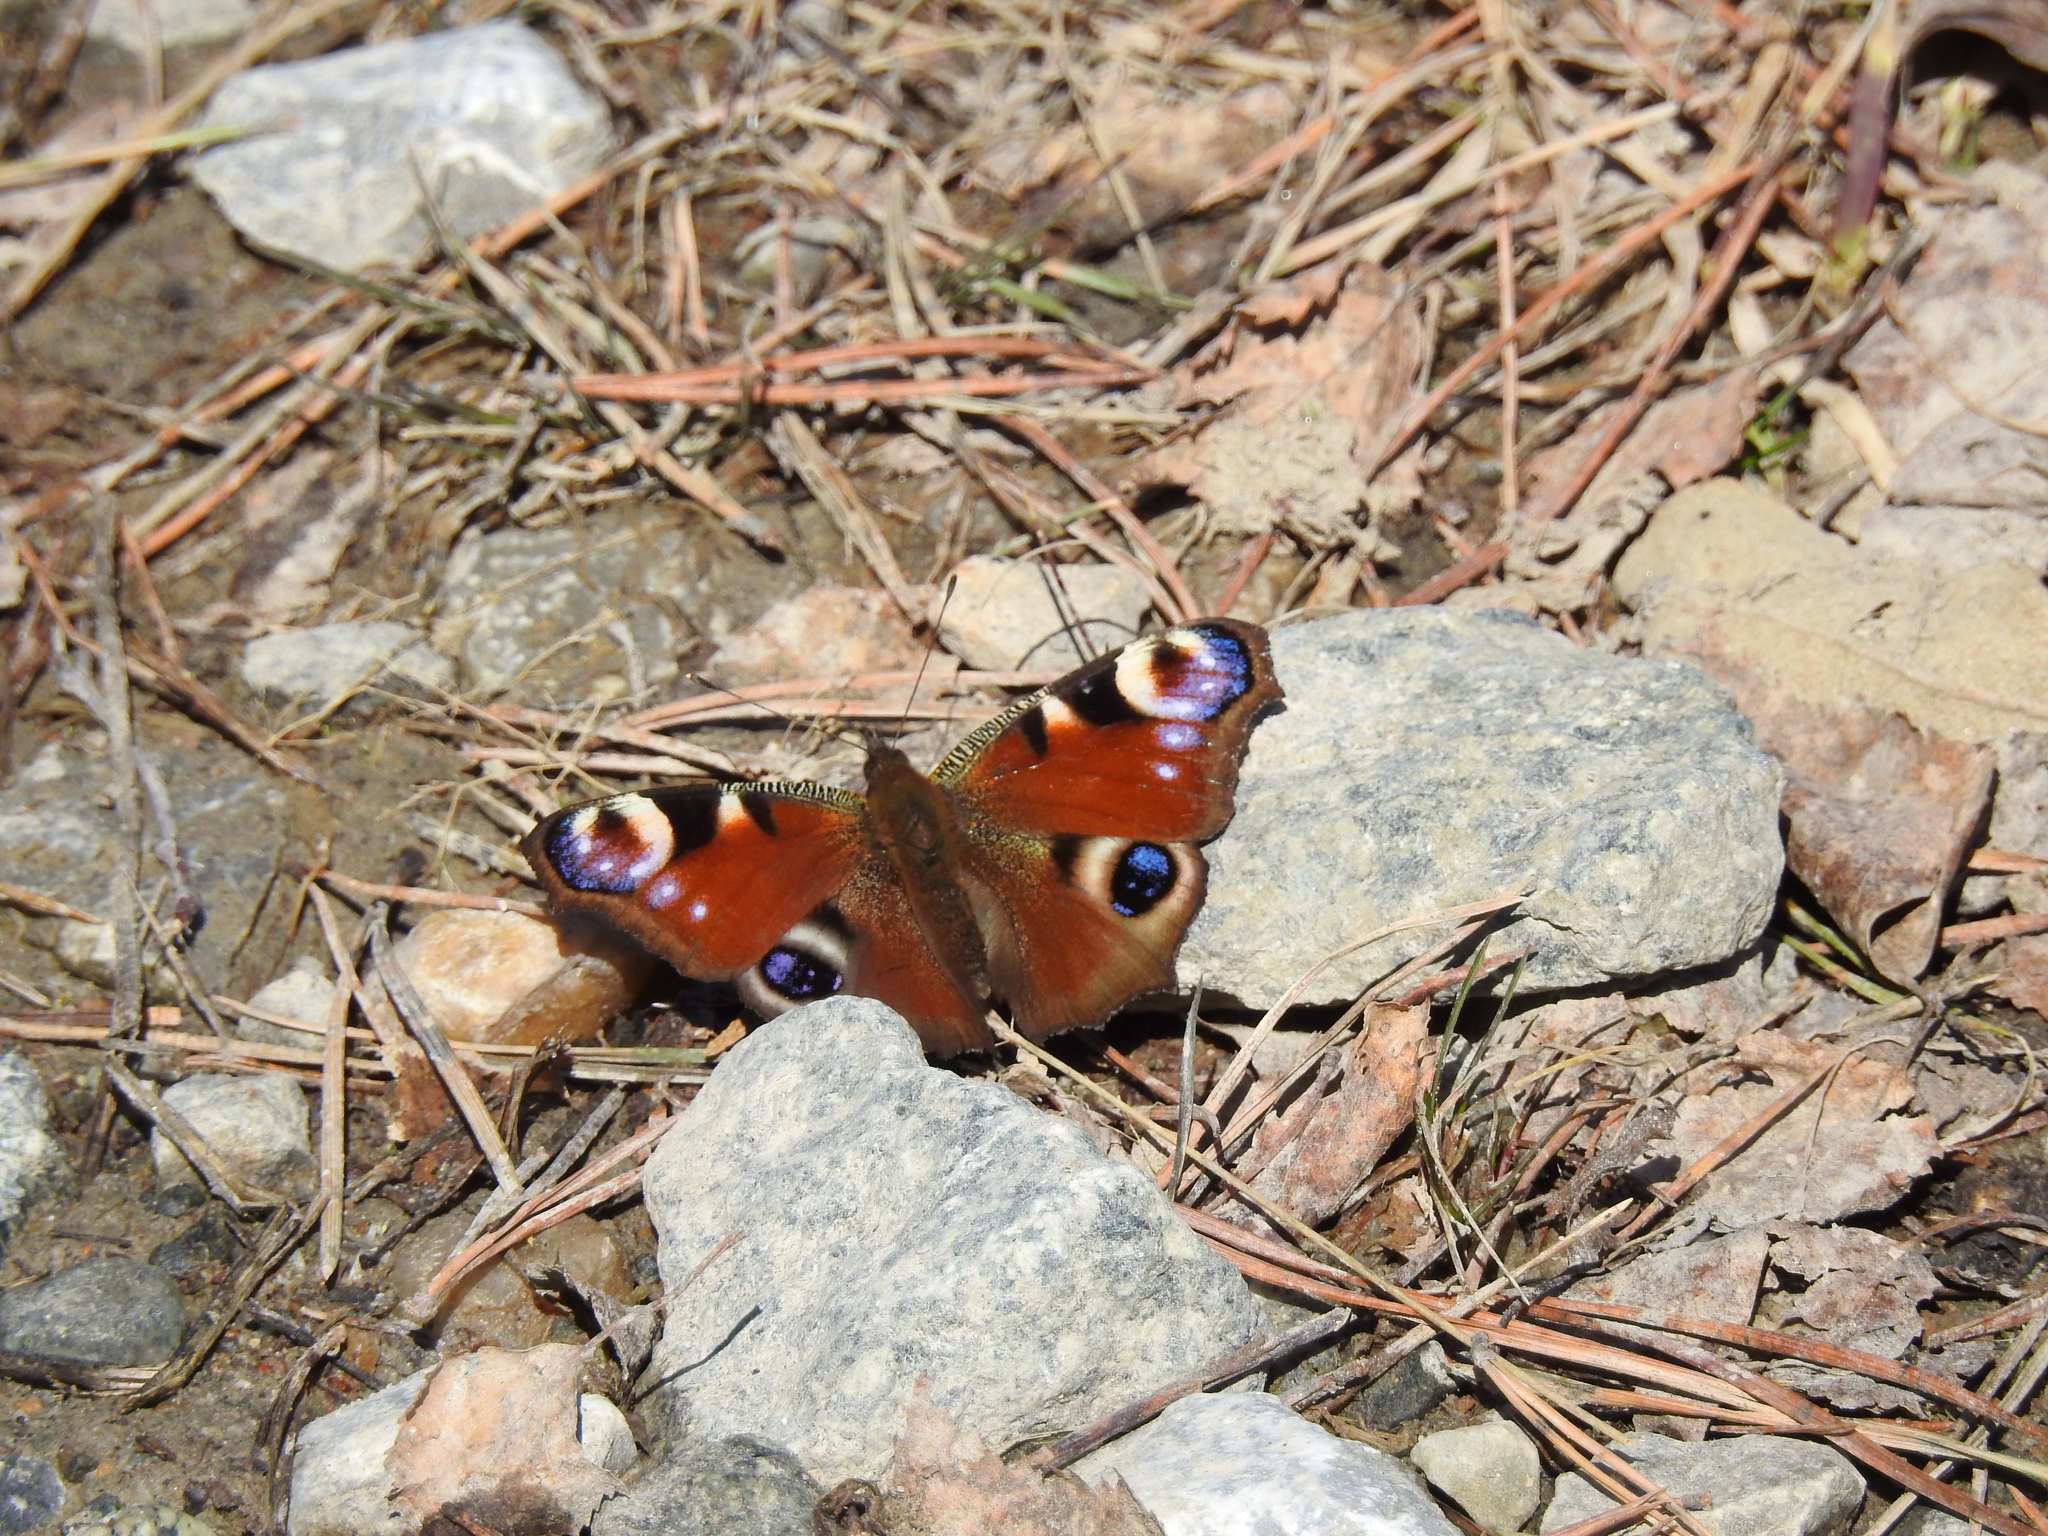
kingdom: Animalia
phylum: Arthropoda
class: Insecta
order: Lepidoptera
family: Nymphalidae
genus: Aglais
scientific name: Aglais io
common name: Peacock
